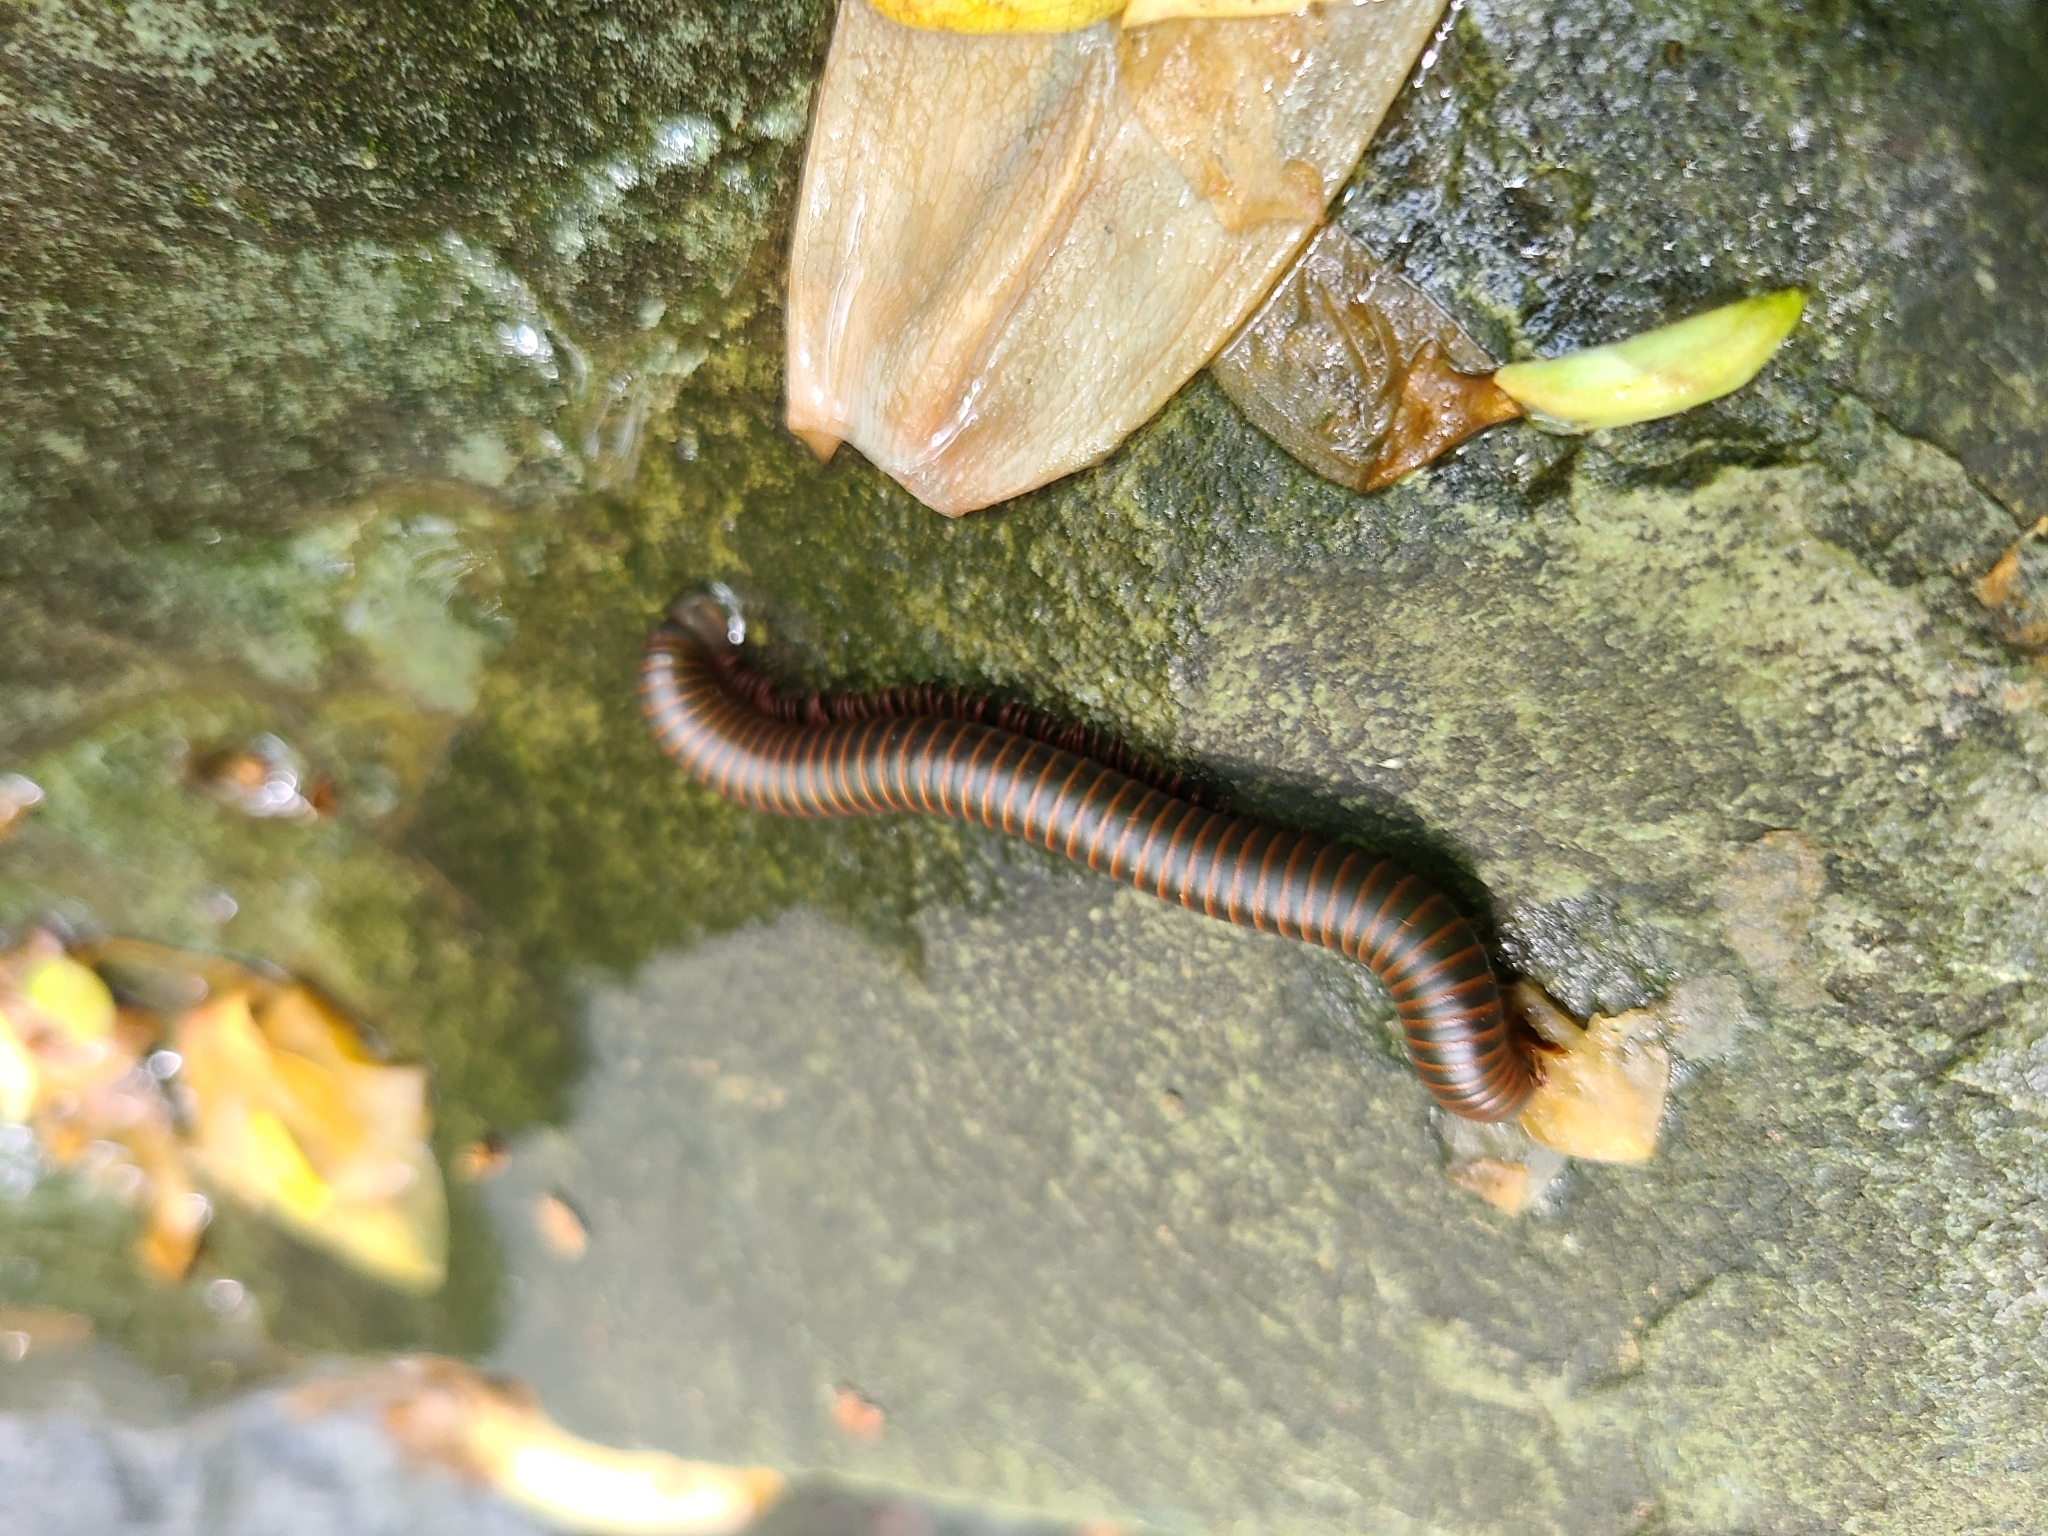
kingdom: Animalia
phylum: Arthropoda
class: Diplopoda
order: Spirobolida
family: Spirobolidae
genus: Narceus
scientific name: Narceus
